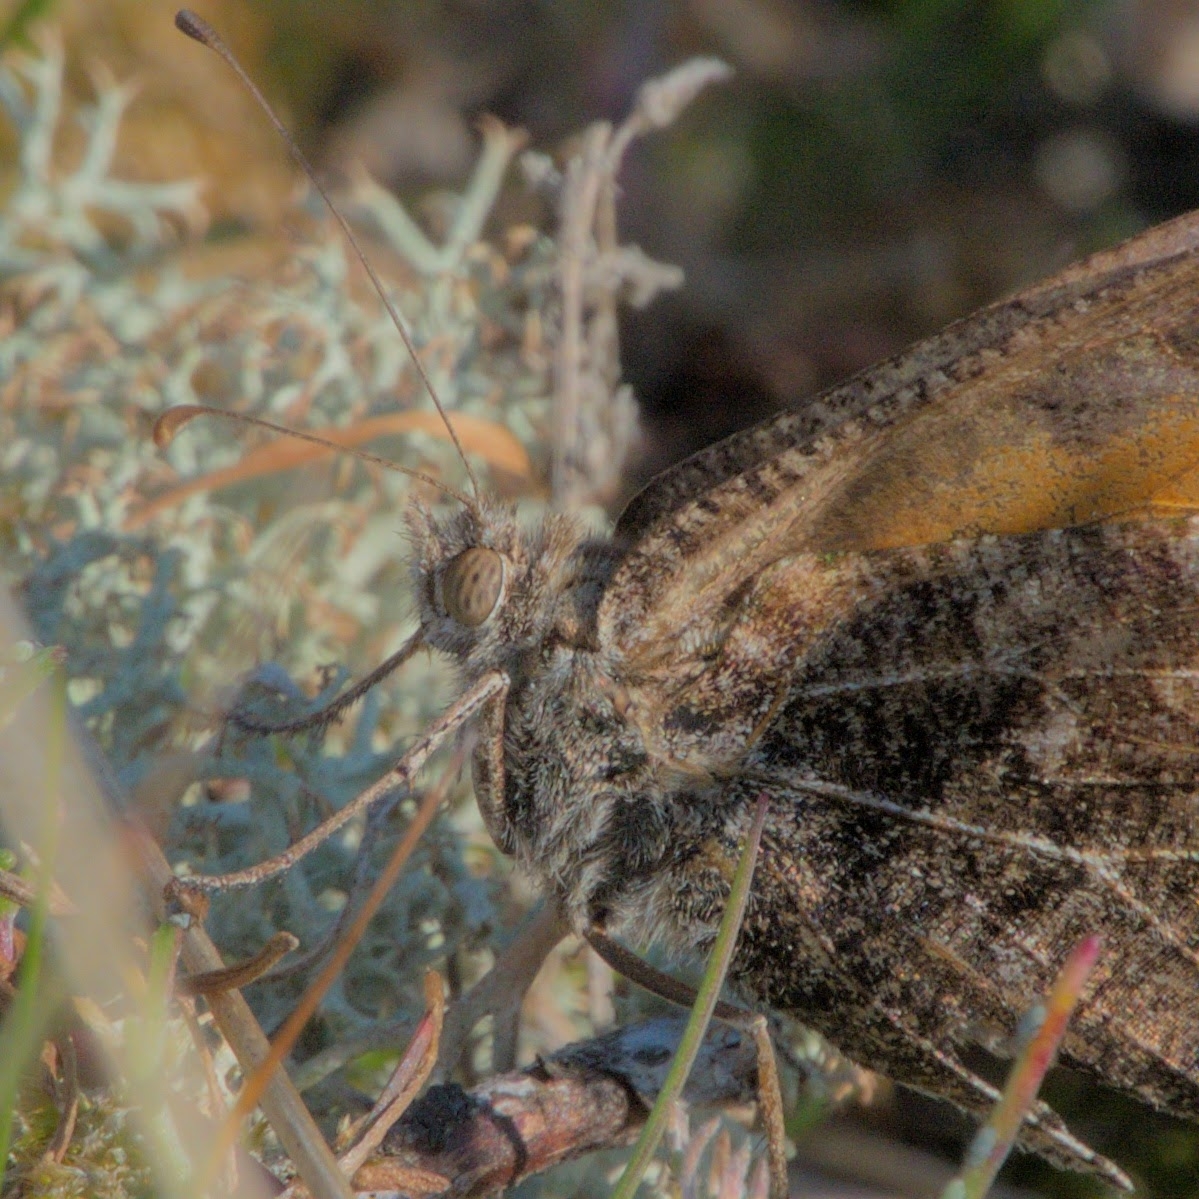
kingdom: Animalia
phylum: Arthropoda
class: Insecta
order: Lepidoptera
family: Nymphalidae
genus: Hipparchia
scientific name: Hipparchia semele
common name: Grayling
